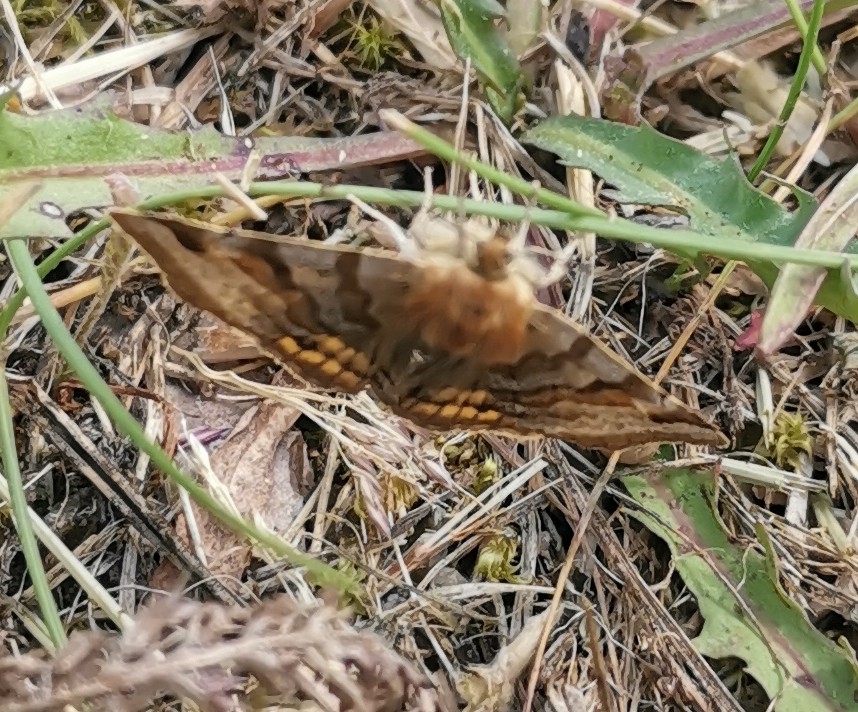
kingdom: Animalia
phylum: Arthropoda
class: Insecta
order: Lepidoptera
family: Erebidae
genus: Euclidia
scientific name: Euclidia glyphica
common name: Burnet companion
